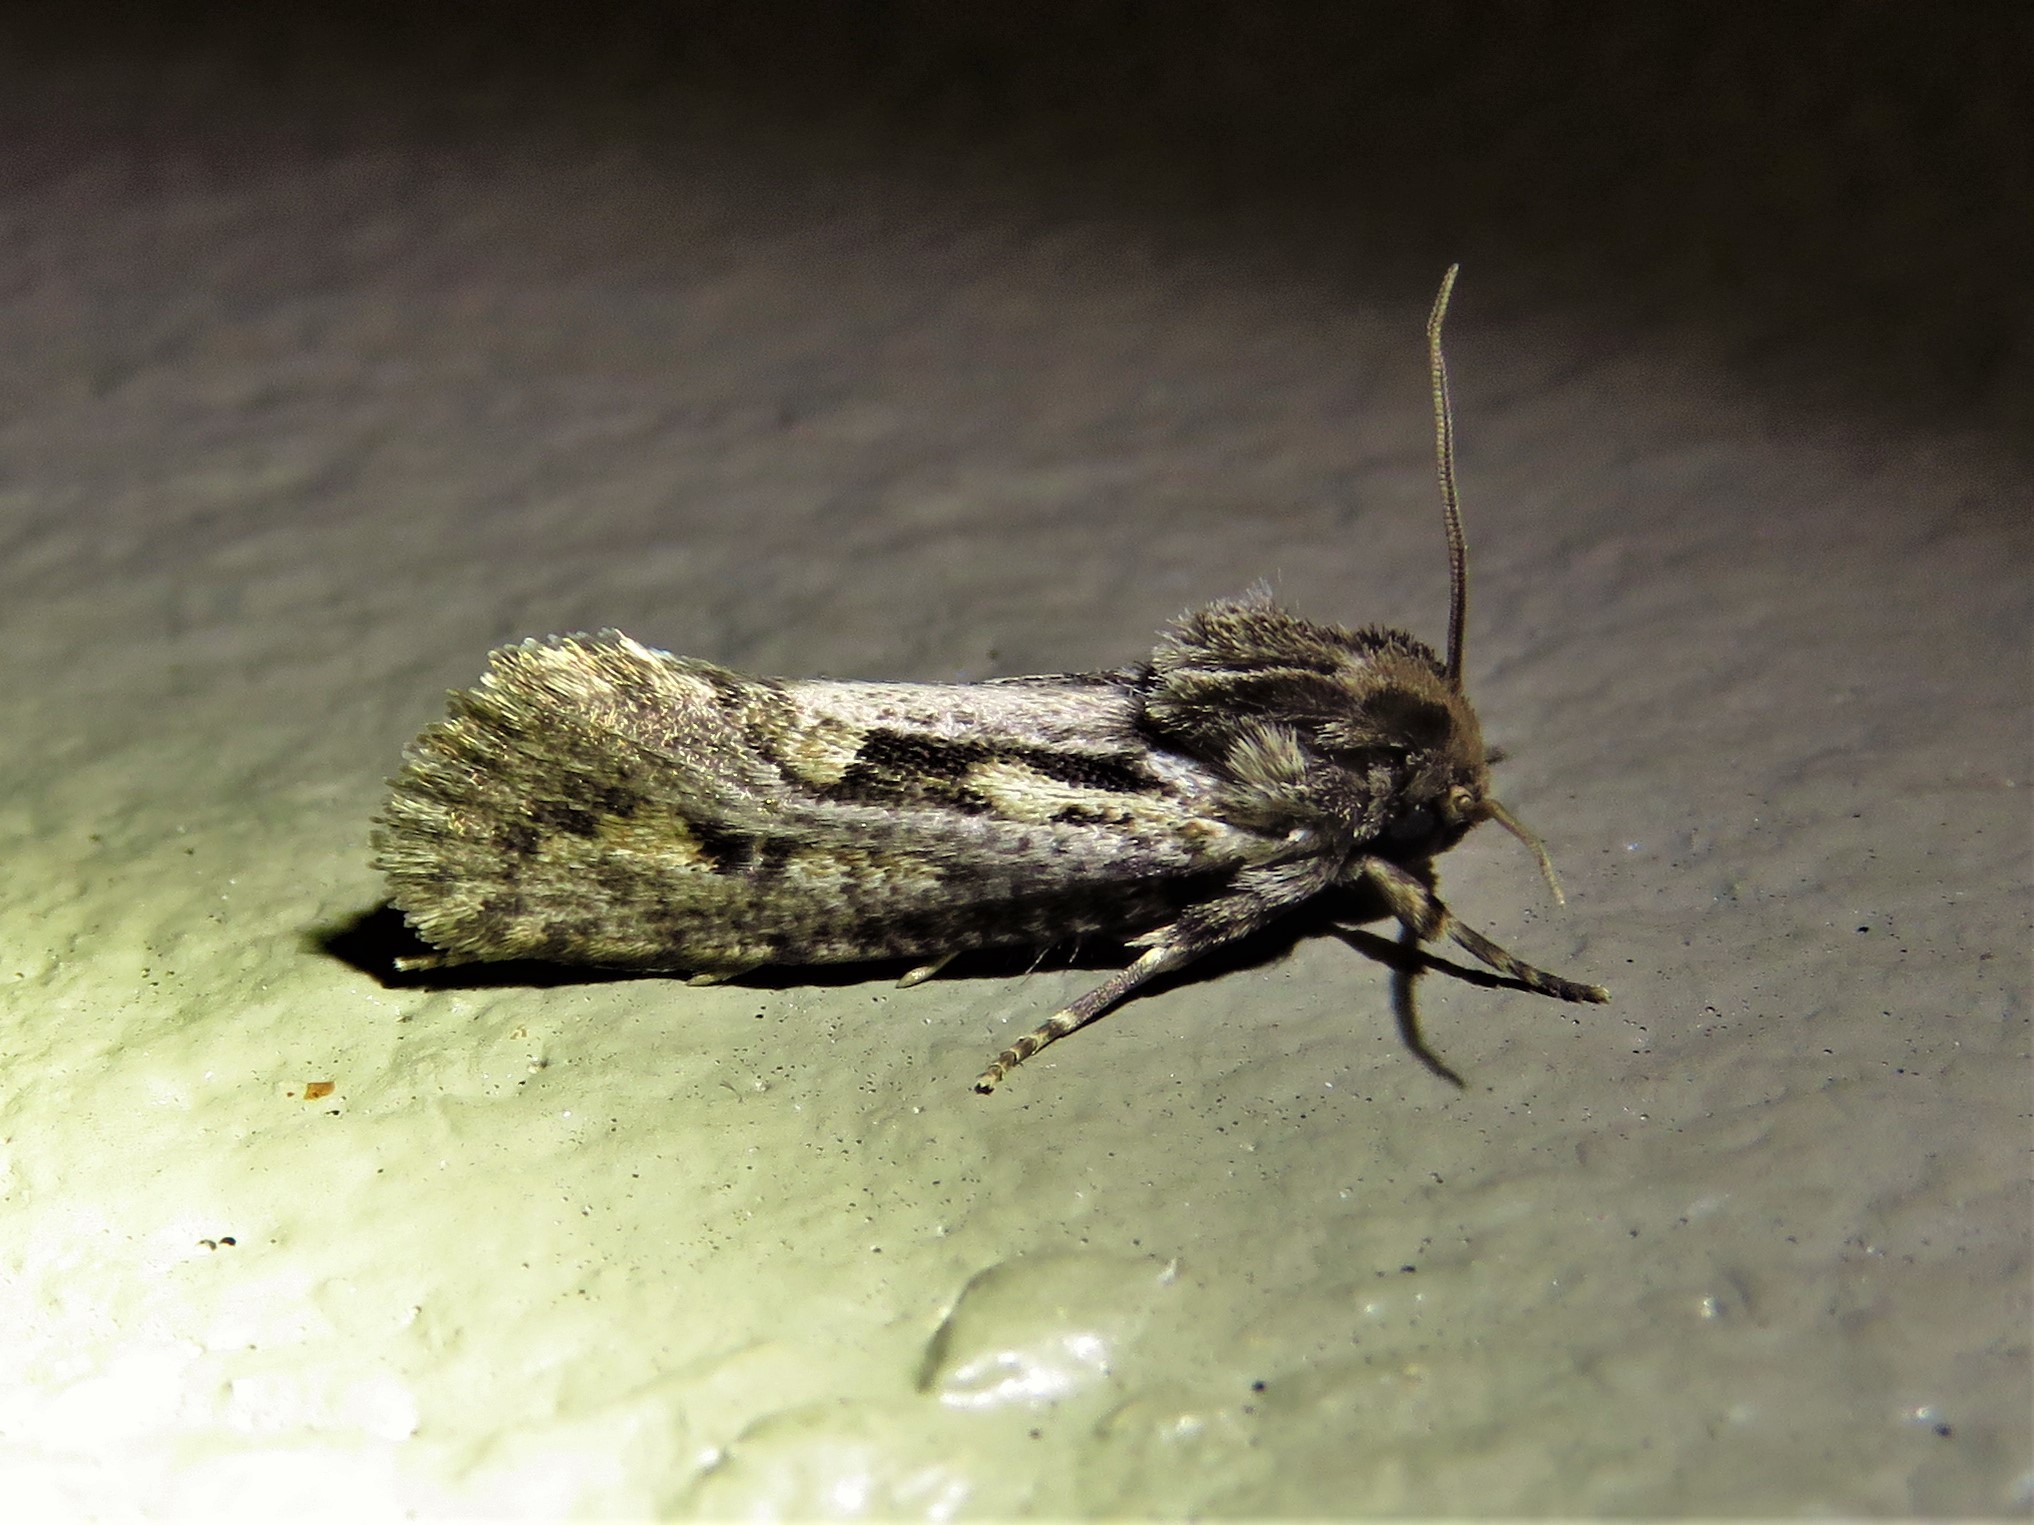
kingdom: Animalia
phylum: Arthropoda
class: Insecta
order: Lepidoptera
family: Tineidae
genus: Acrolophus
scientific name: Acrolophus popeanella
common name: Clemens' grass tubeworm moth
